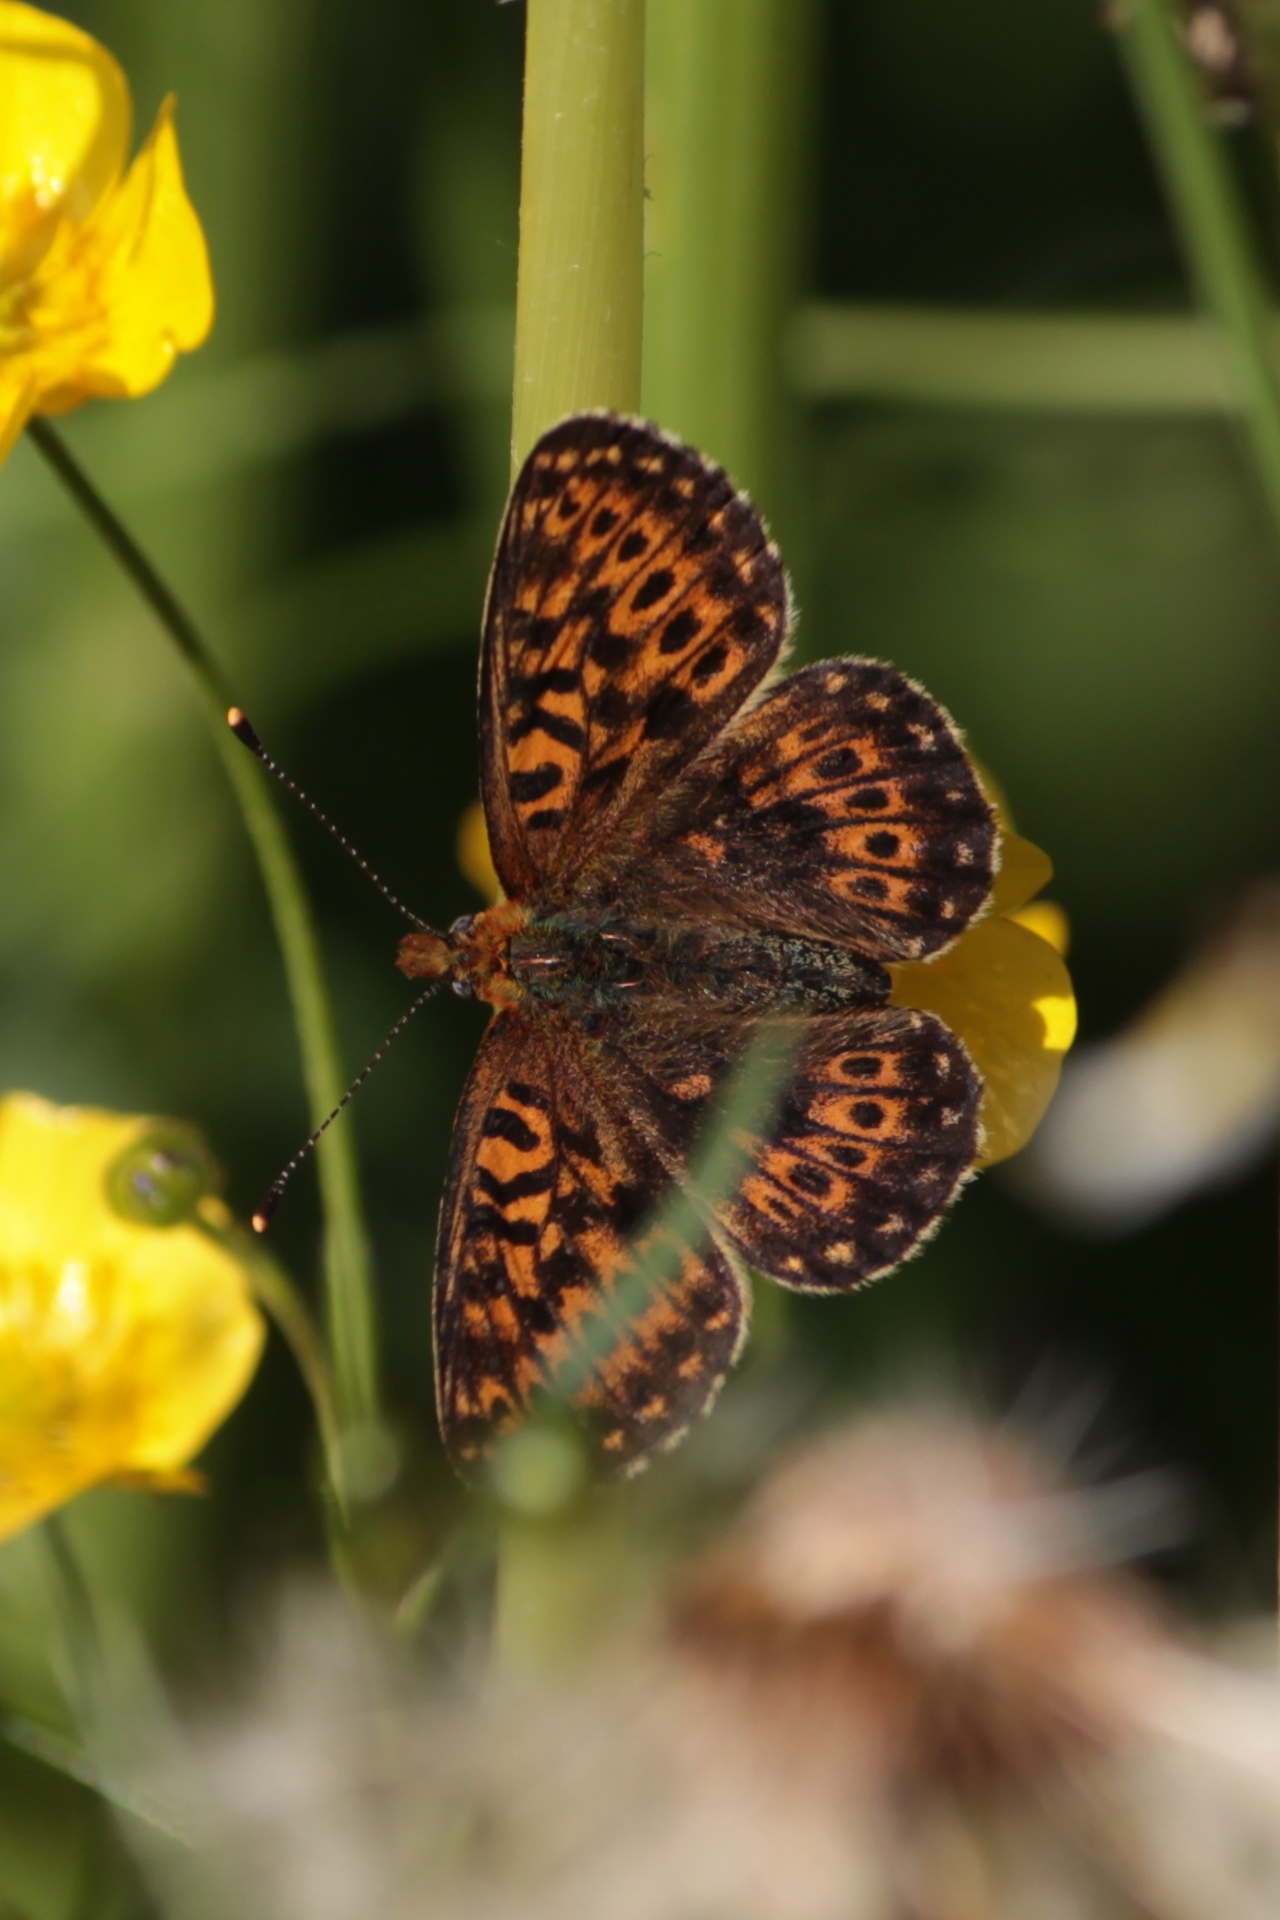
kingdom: Animalia
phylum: Arthropoda
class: Insecta
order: Lepidoptera
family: Nymphalidae
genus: Clossiana
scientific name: Clossiana euphrosyne
